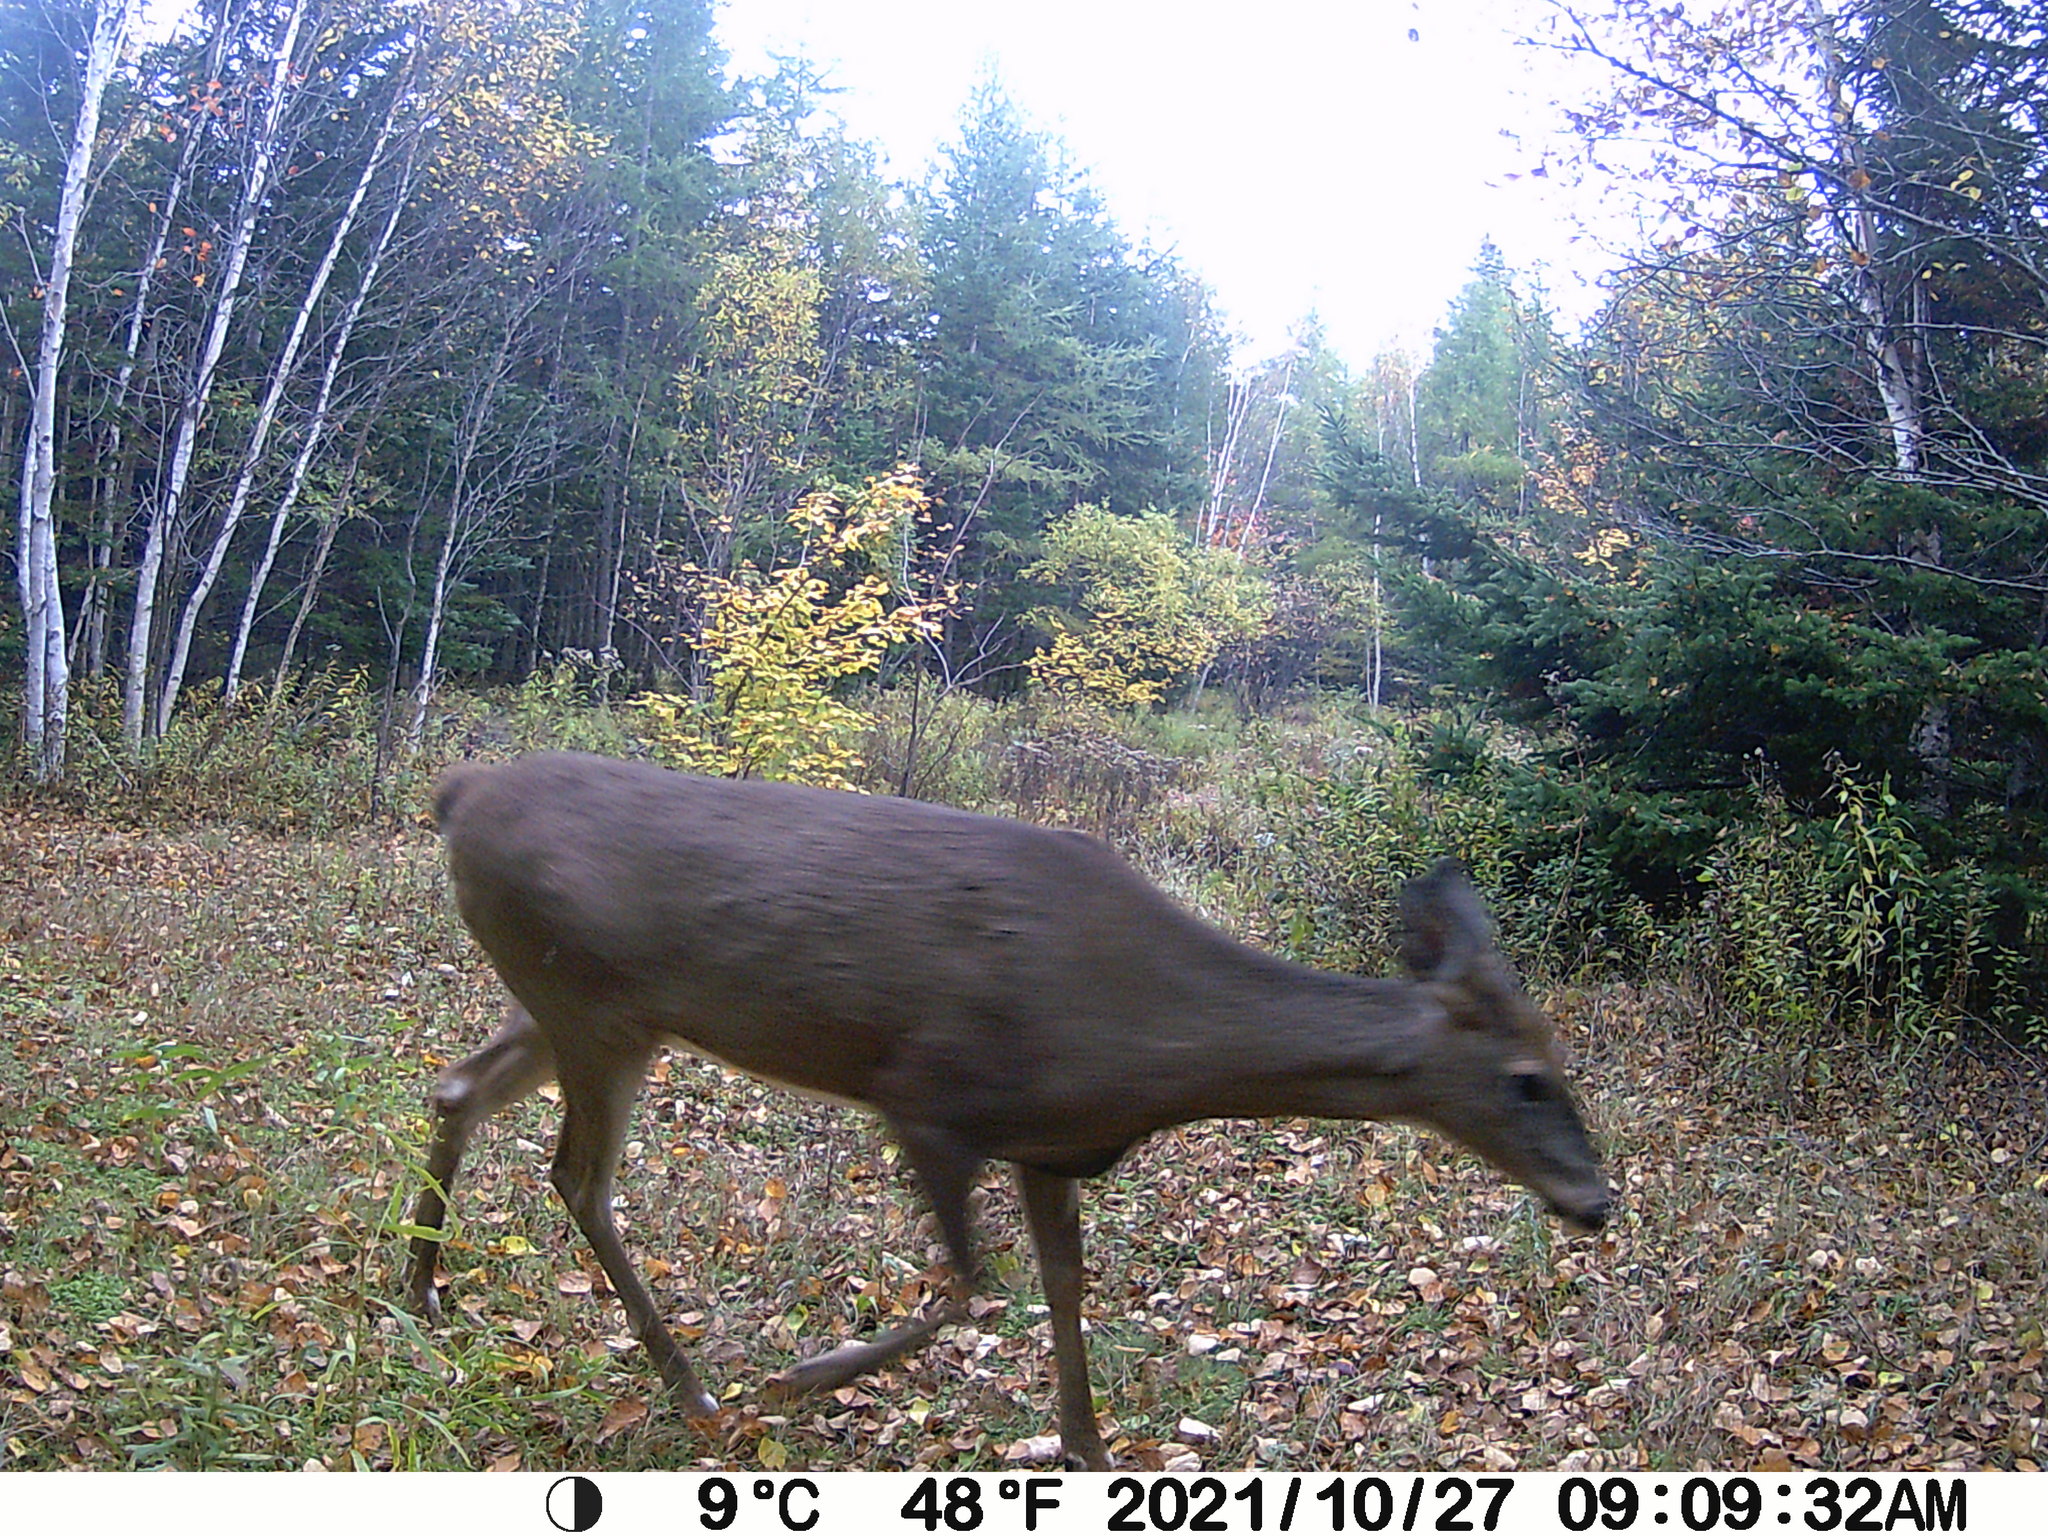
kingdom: Animalia
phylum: Chordata
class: Mammalia
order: Artiodactyla
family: Cervidae
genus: Odocoileus
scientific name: Odocoileus virginianus
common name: White-tailed deer
